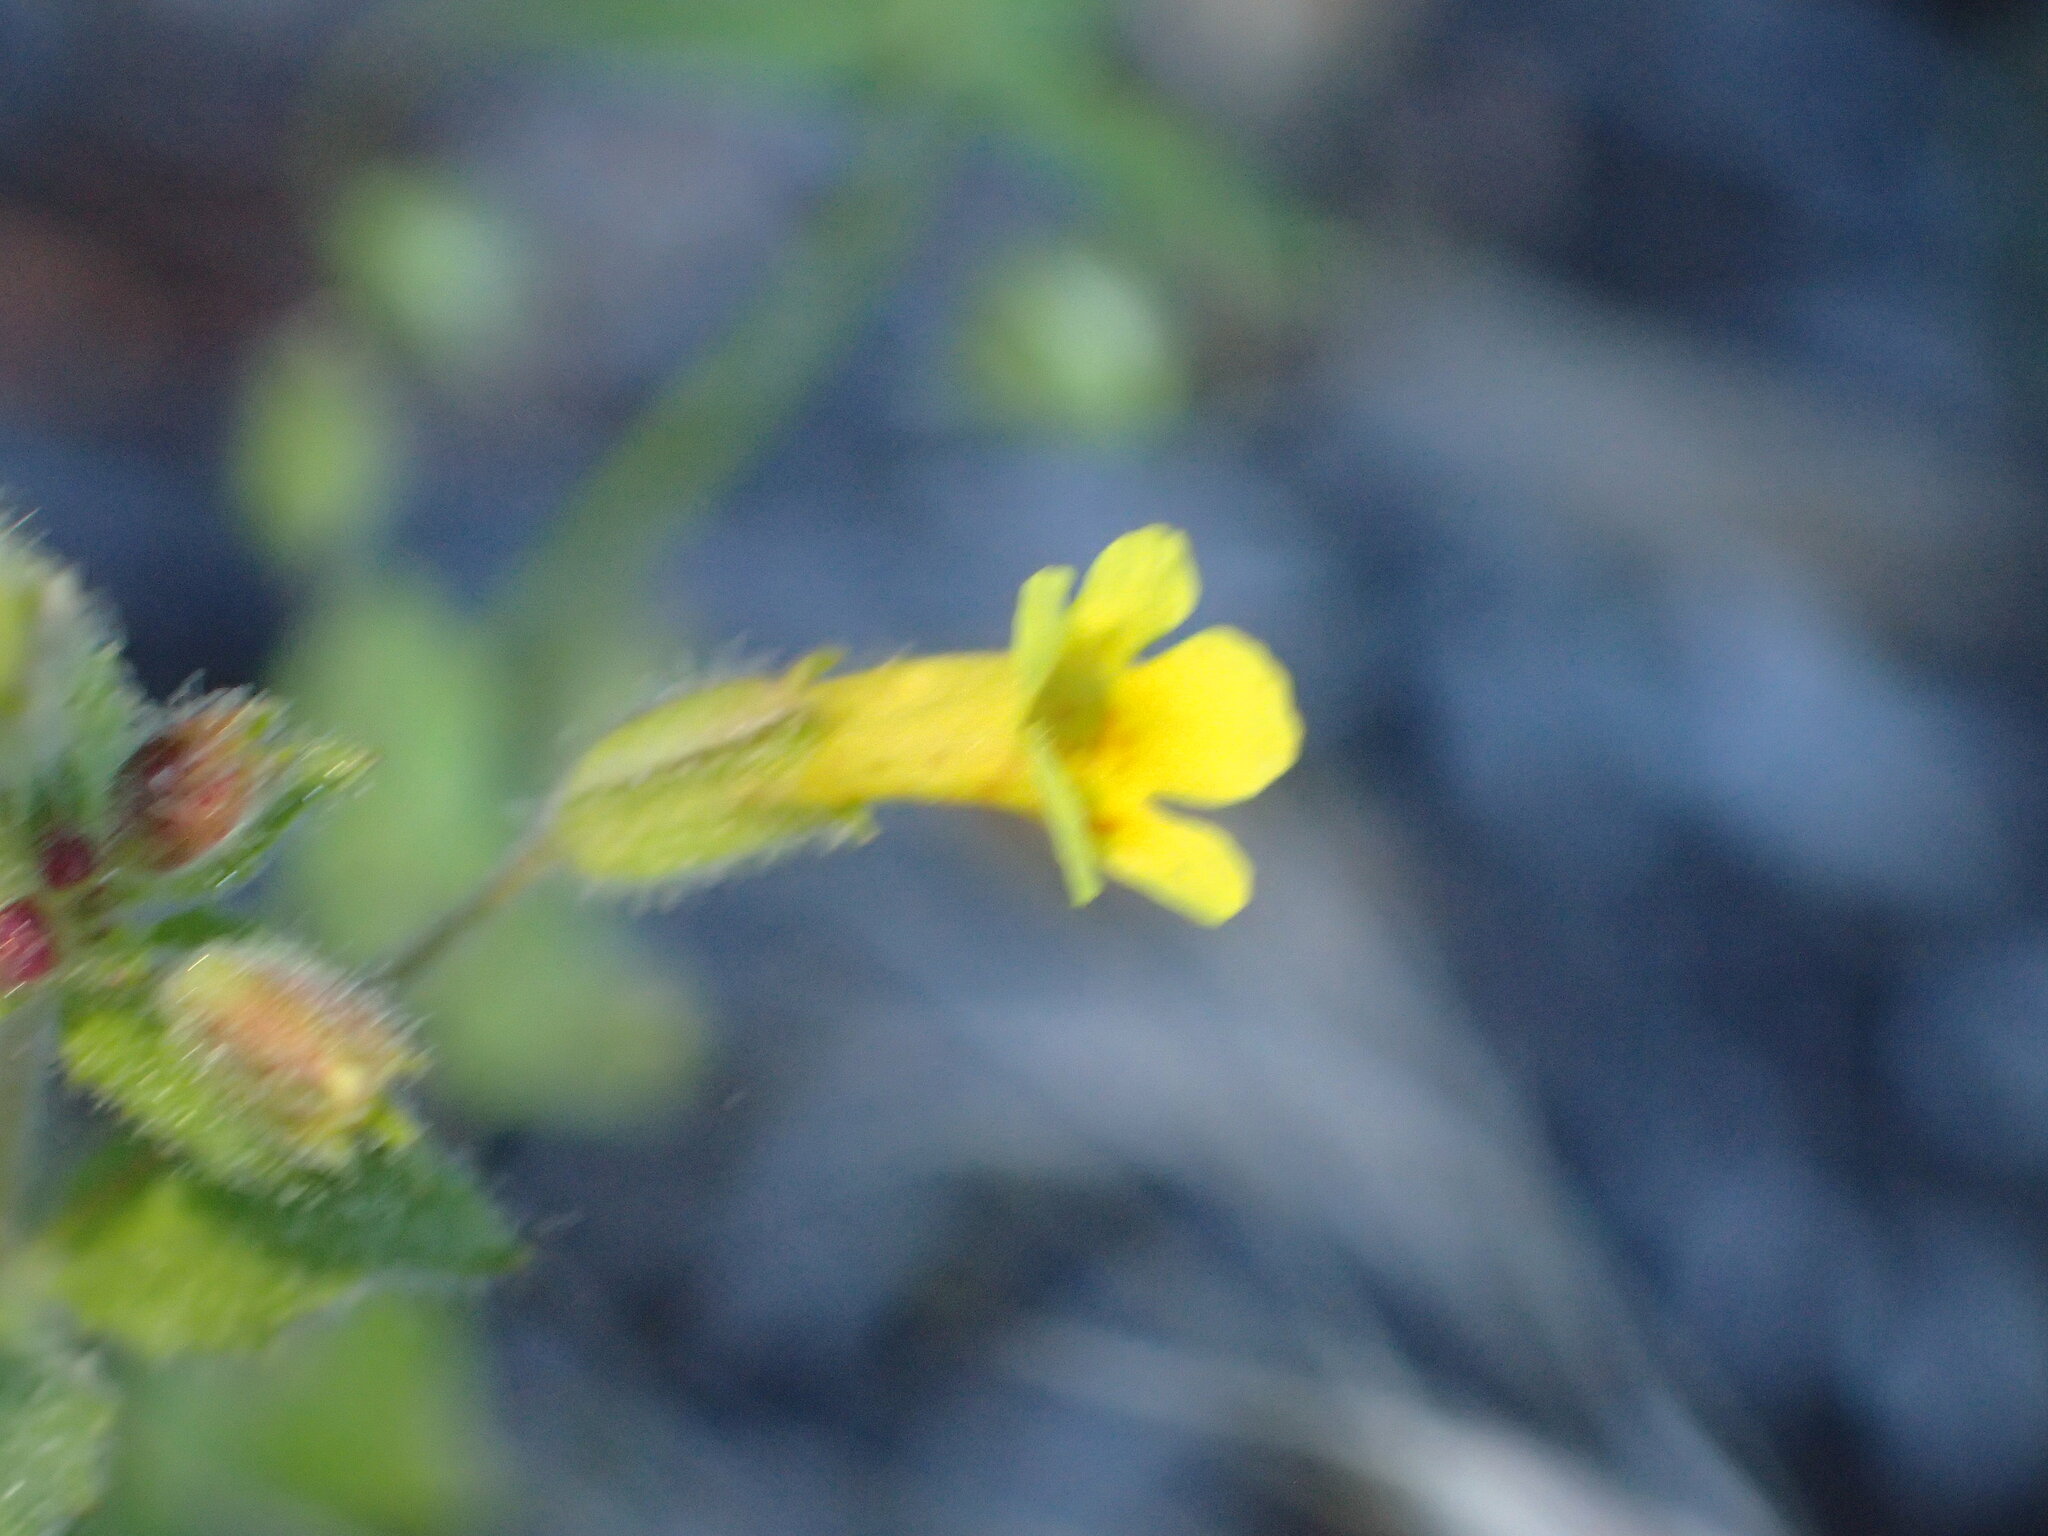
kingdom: Plantae
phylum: Tracheophyta
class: Magnoliopsida
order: Lamiales
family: Phrymaceae
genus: Erythranthe
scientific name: Erythranthe floribunda
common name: Floriferous monkeyflower
